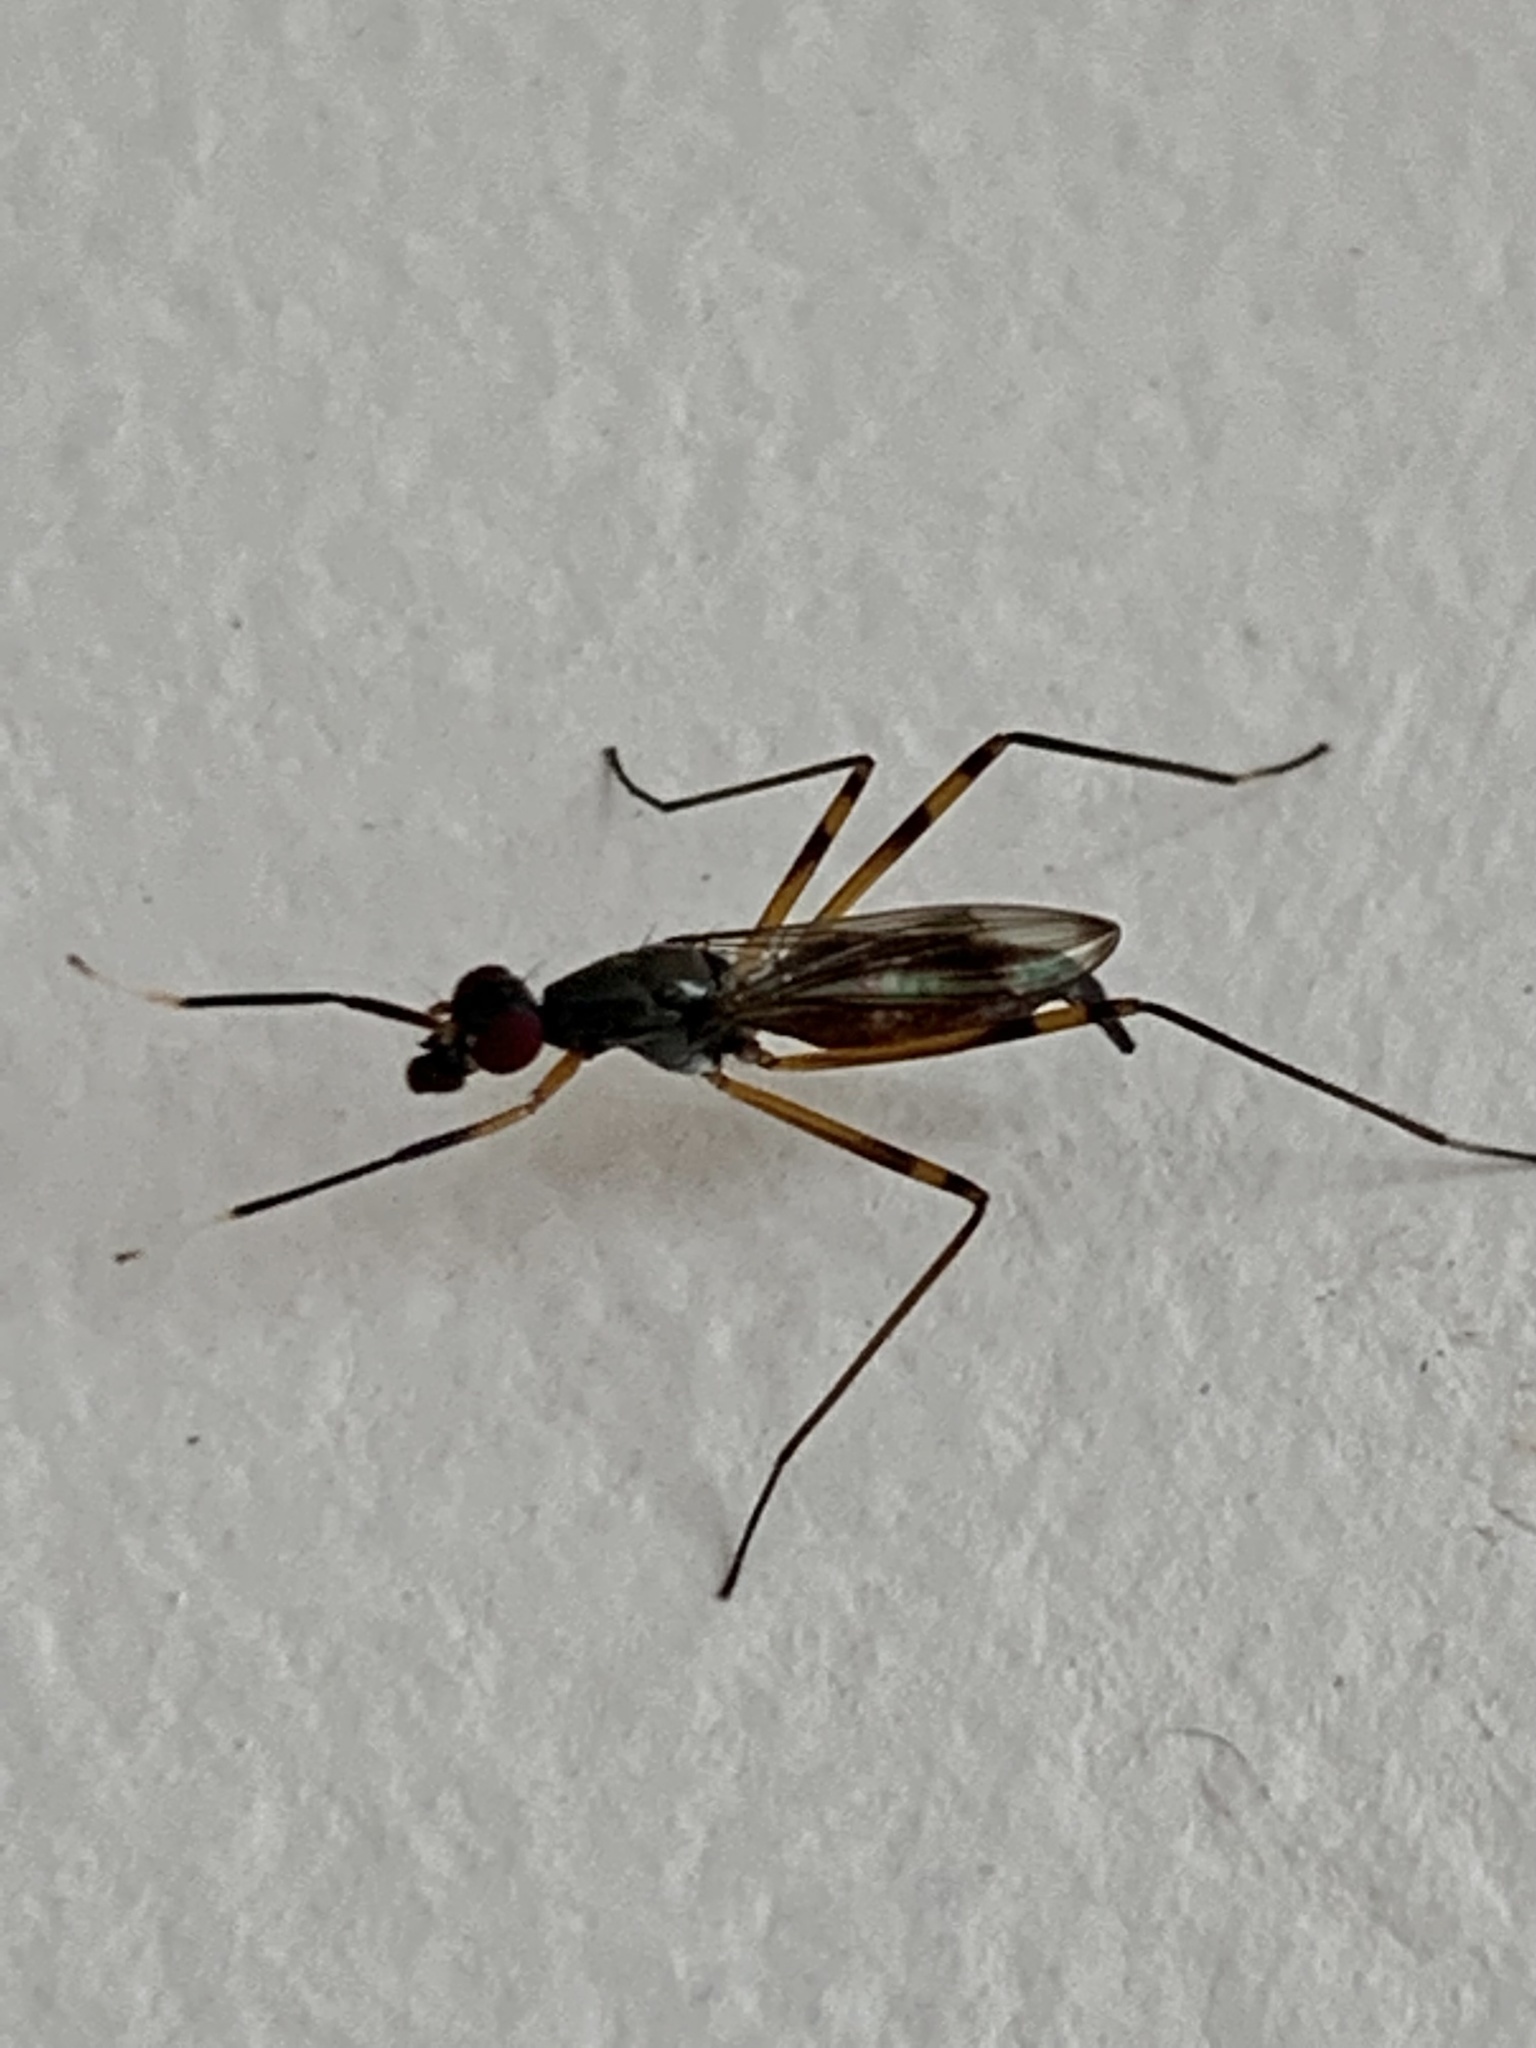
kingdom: Animalia
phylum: Arthropoda
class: Insecta
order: Diptera
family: Micropezidae
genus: Rainieria
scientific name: Rainieria antennaepes
